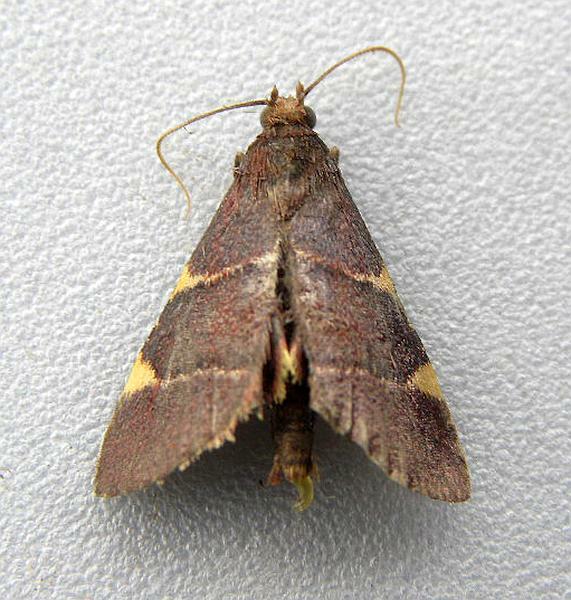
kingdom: Animalia
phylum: Arthropoda
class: Insecta
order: Lepidoptera
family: Pyralidae
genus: Hypsopygia
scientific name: Hypsopygia olinalis
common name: Yellow-fringed dolichomia moth
